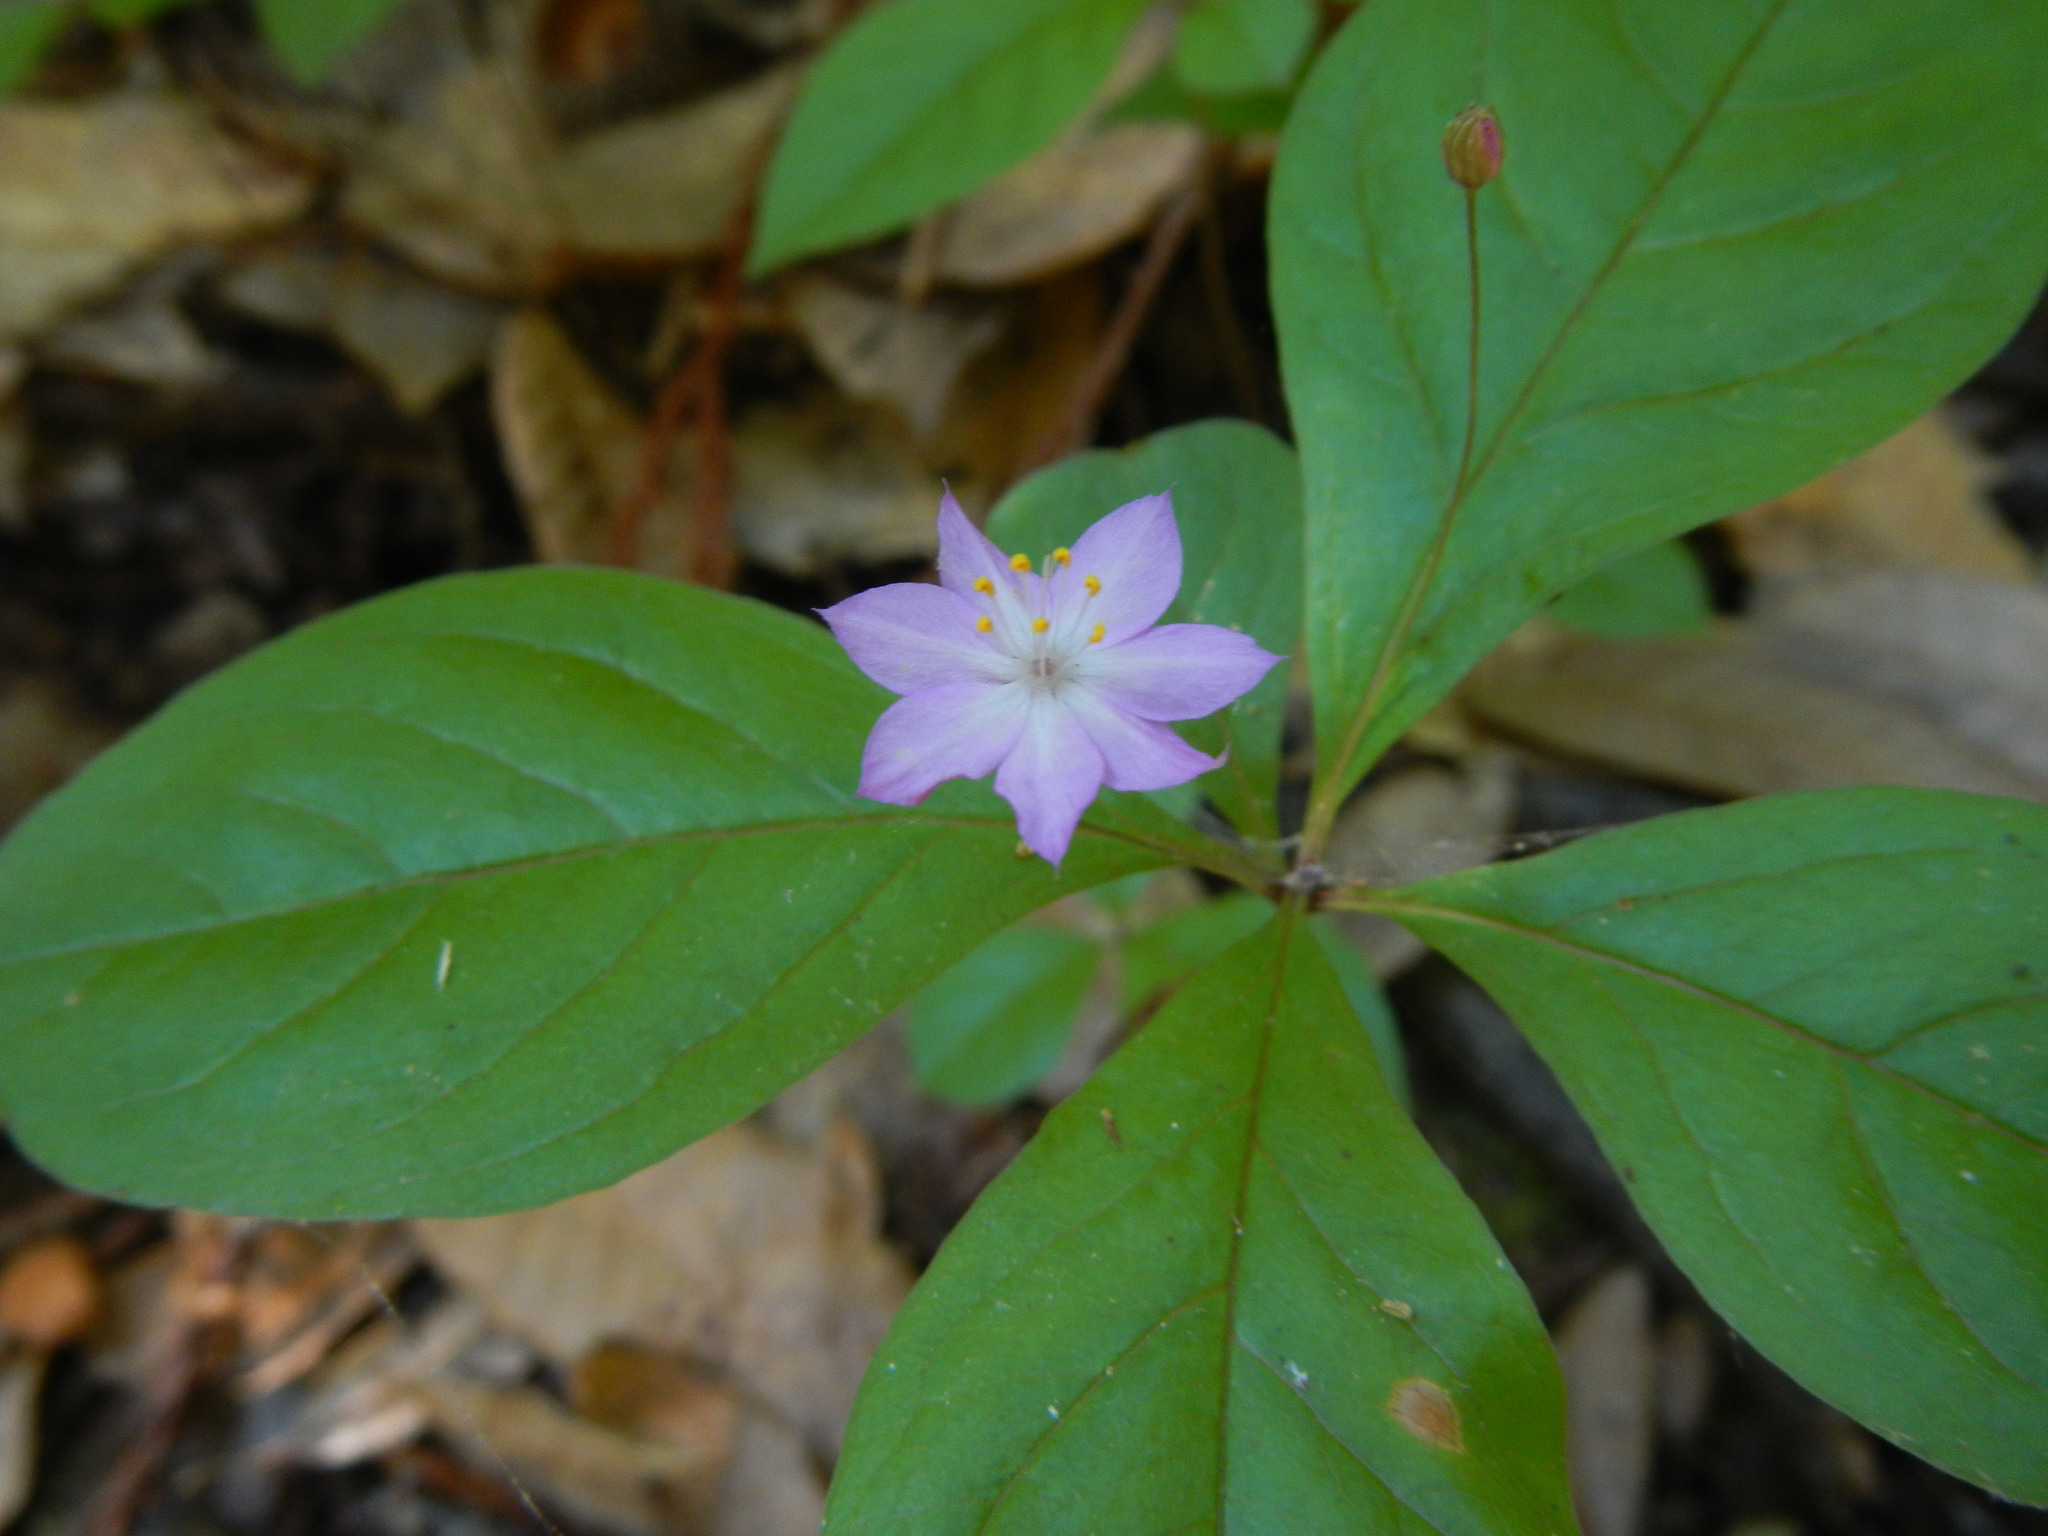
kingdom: Plantae
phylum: Tracheophyta
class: Magnoliopsida
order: Ericales
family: Primulaceae
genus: Lysimachia
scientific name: Lysimachia latifolia
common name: Pacific starflower
